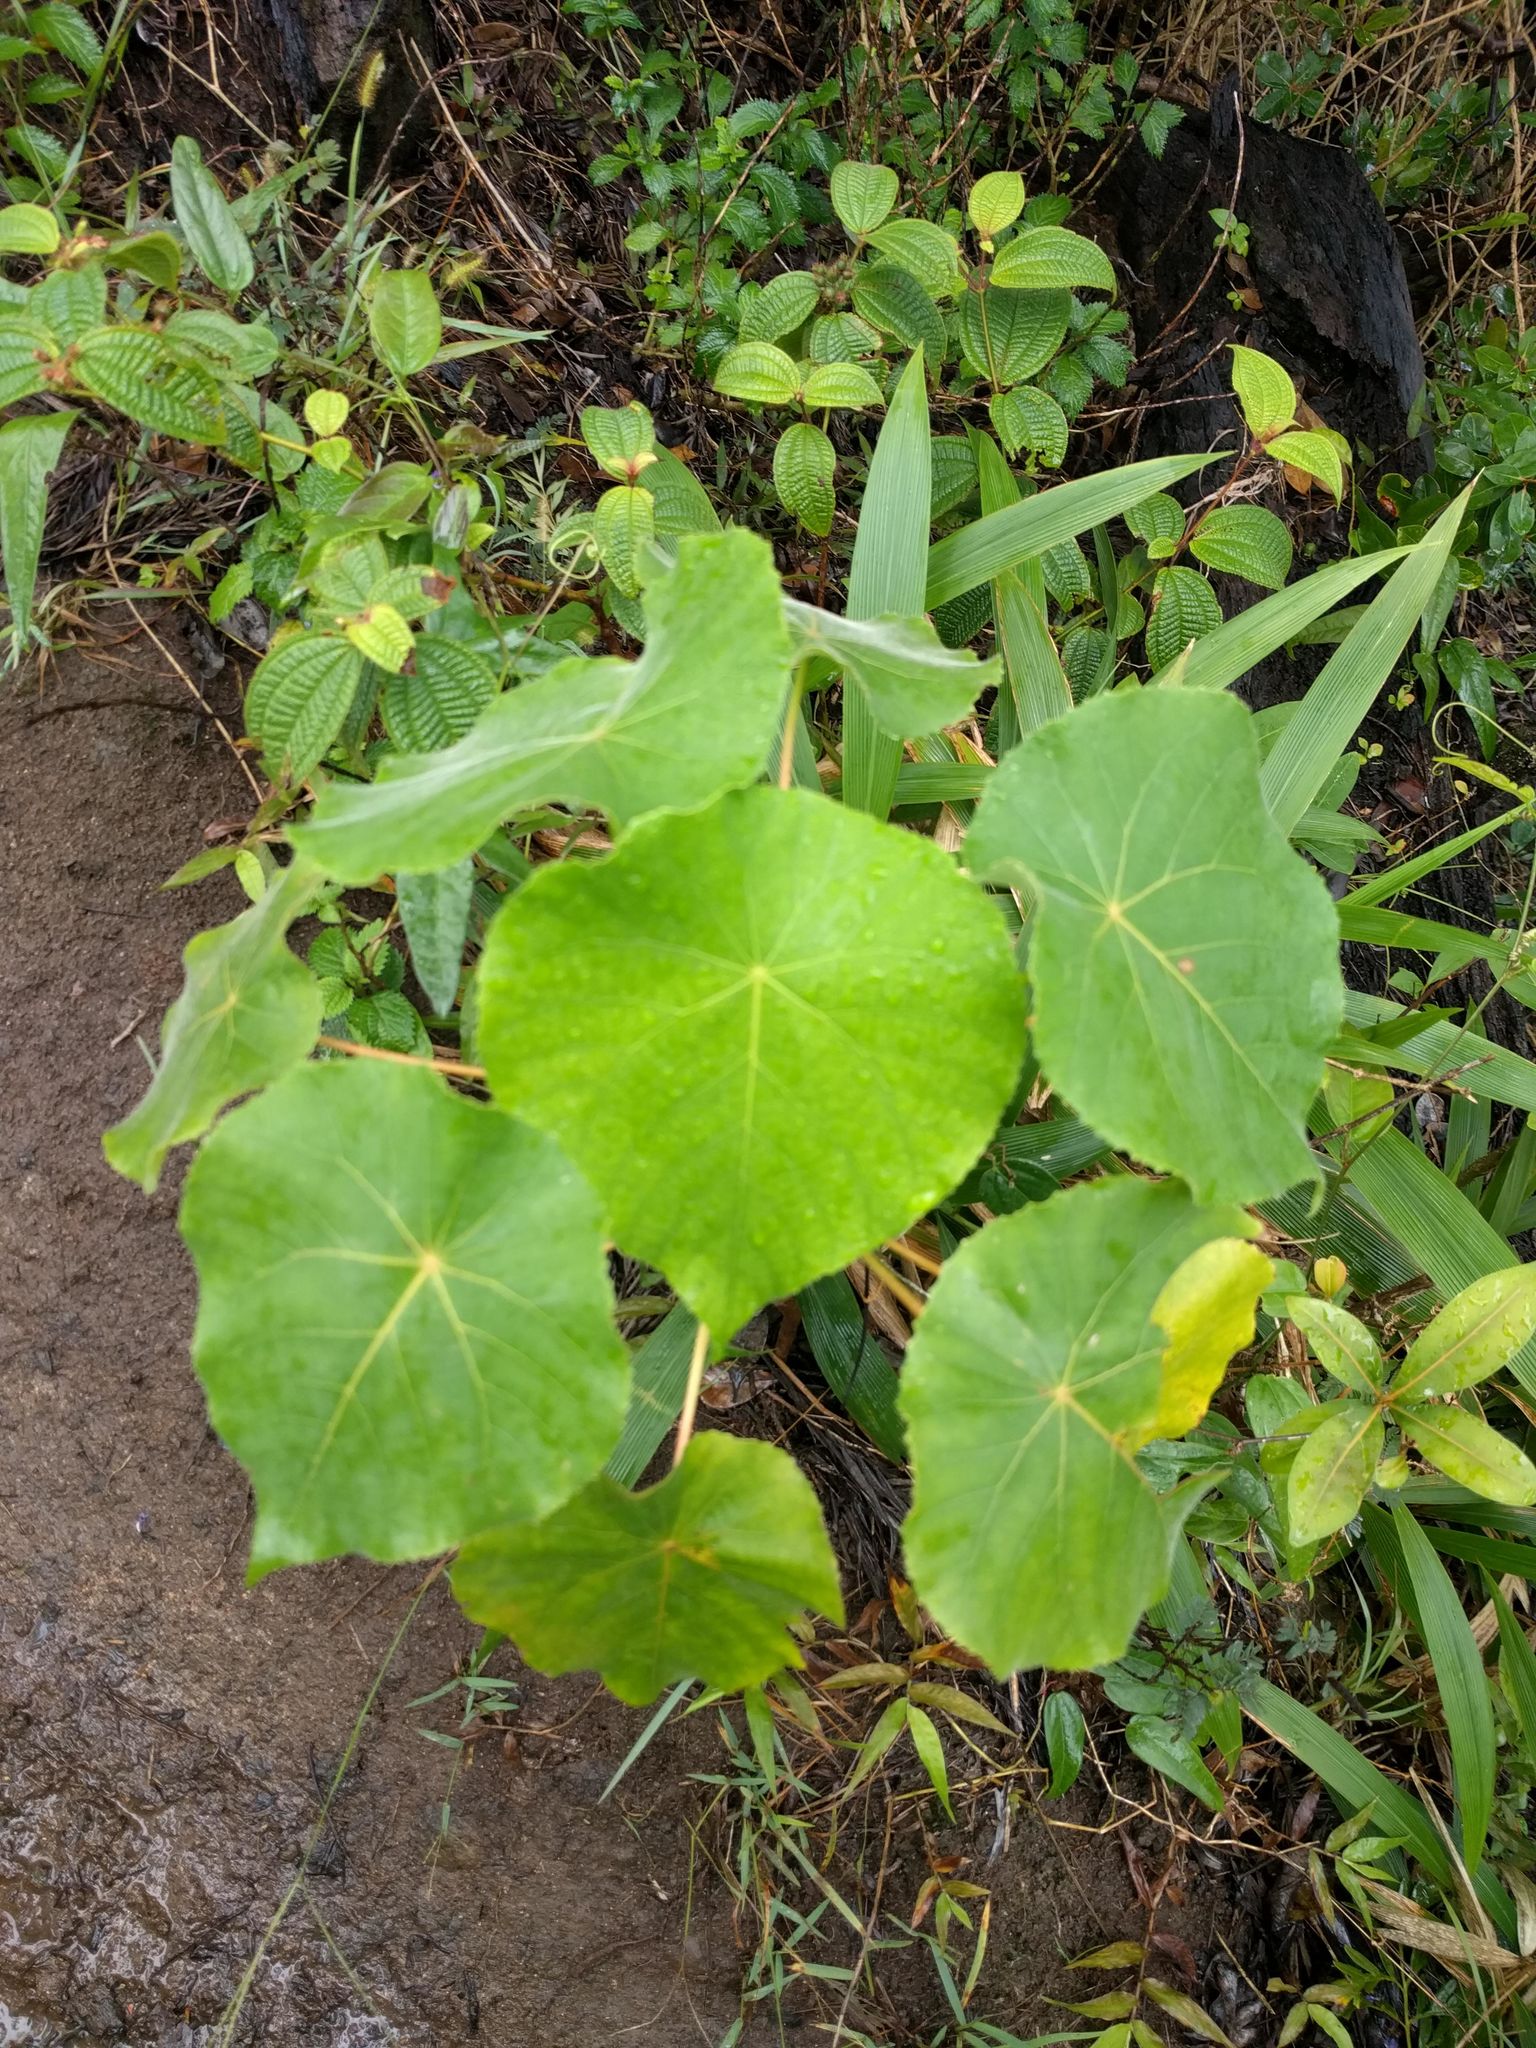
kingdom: Plantae
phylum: Tracheophyta
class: Magnoliopsida
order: Malpighiales
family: Euphorbiaceae
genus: Macaranga
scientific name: Macaranga tanarius
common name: Parasol leaf tree
